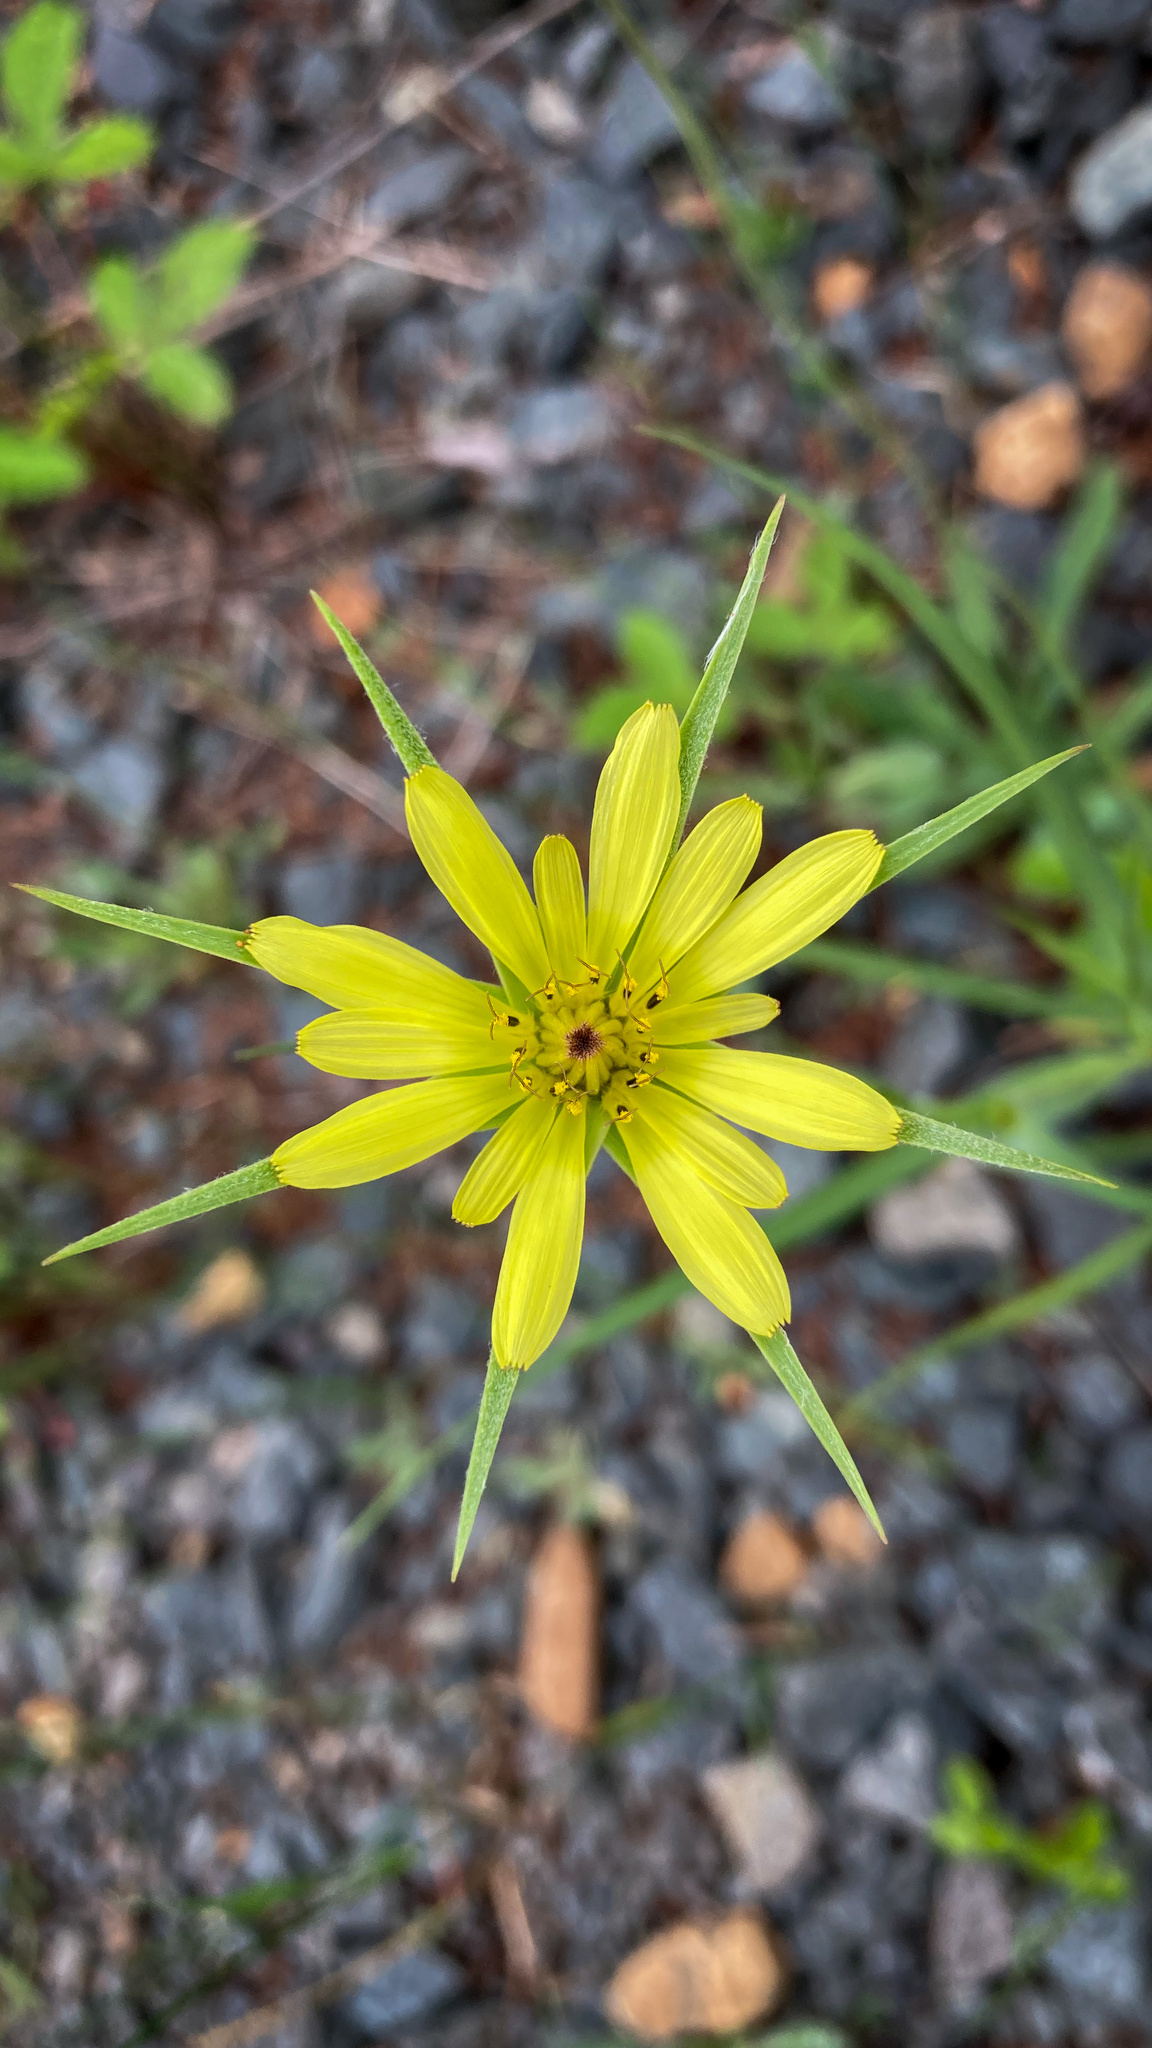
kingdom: Plantae
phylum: Tracheophyta
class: Magnoliopsida
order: Asterales
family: Asteraceae
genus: Tragopogon
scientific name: Tragopogon dubius
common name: Yellow salsify
